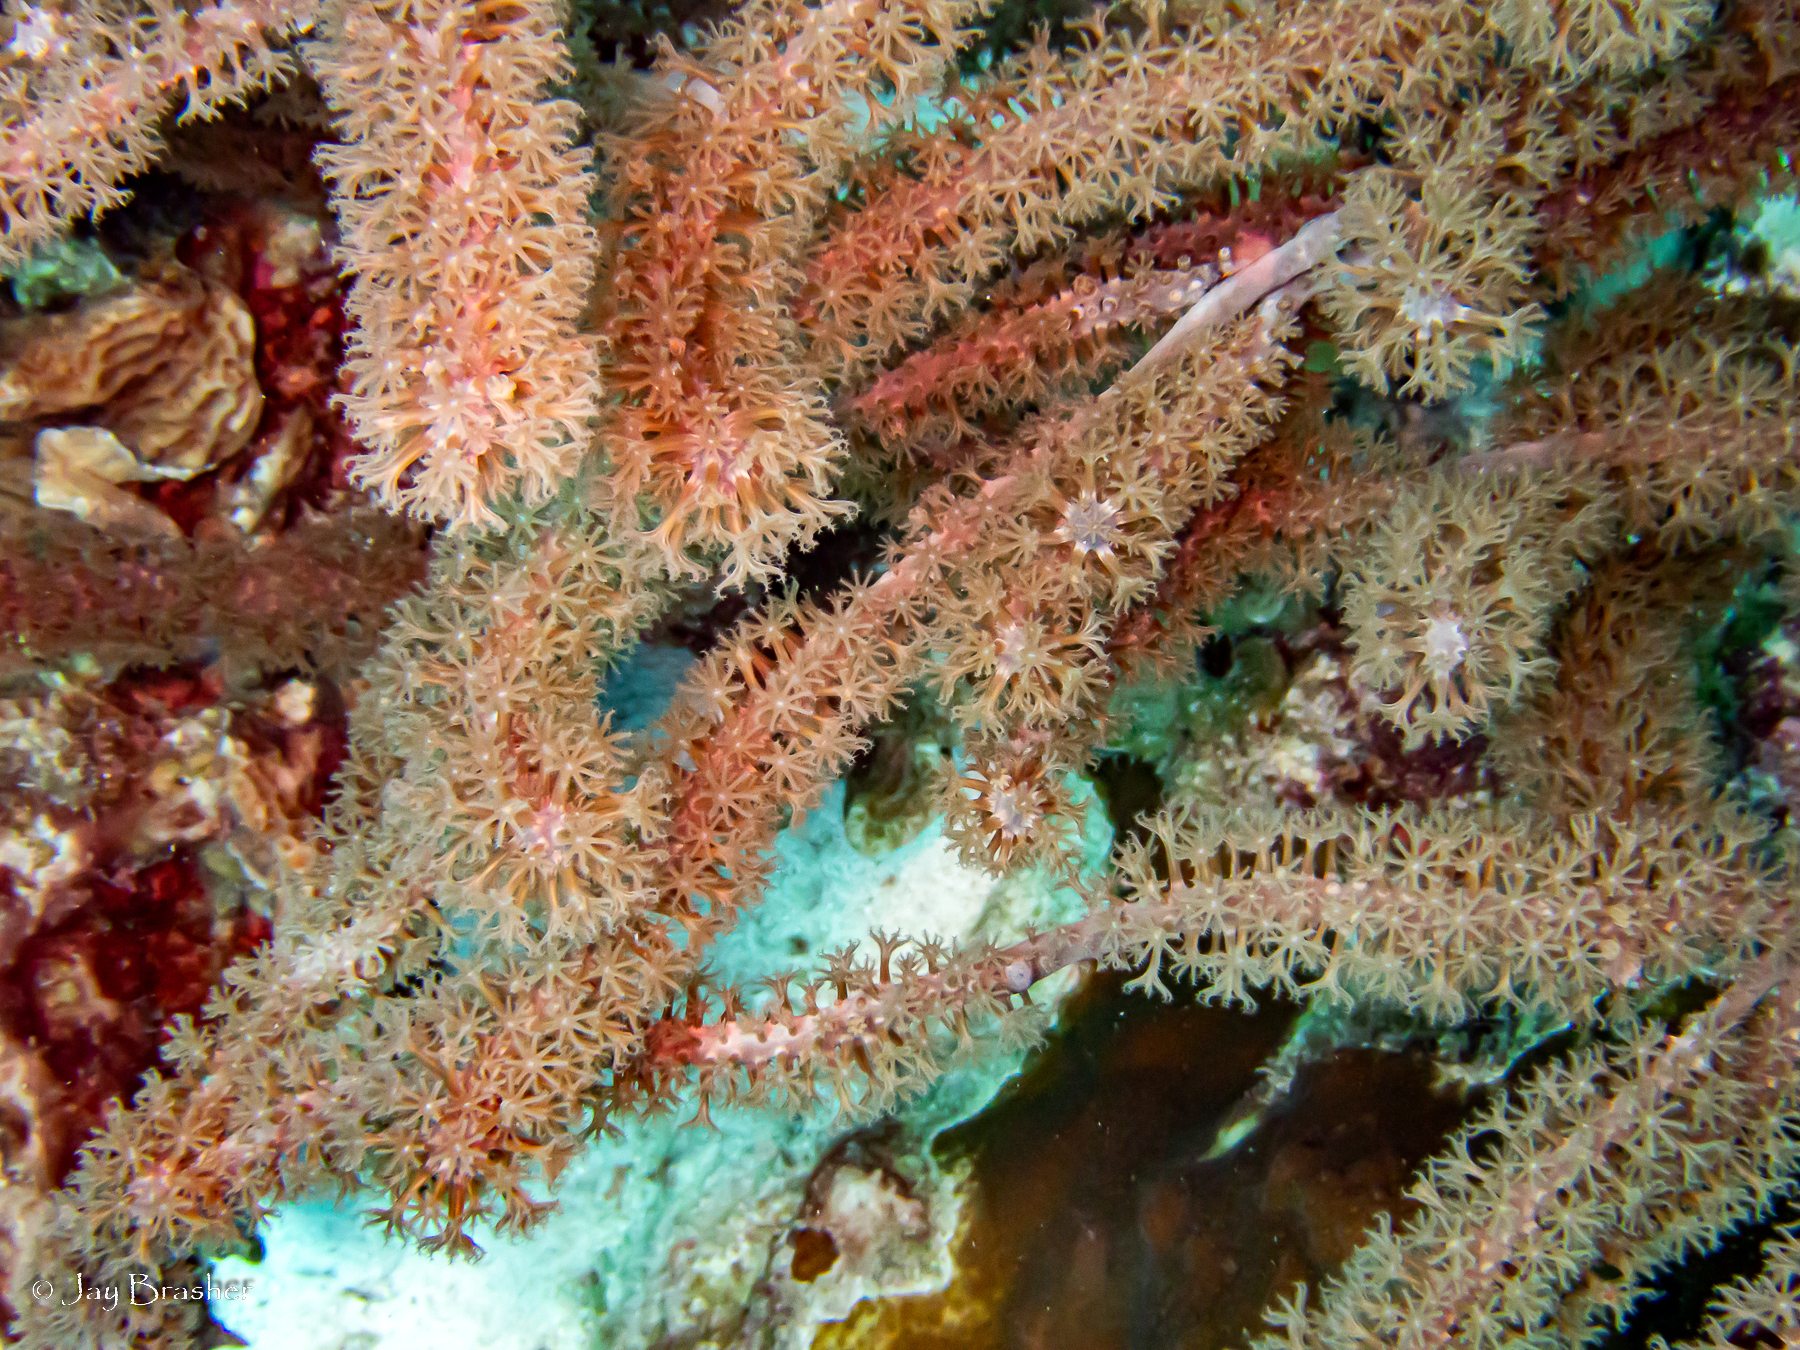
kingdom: Animalia
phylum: Cnidaria
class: Anthozoa
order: Malacalcyonacea
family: Pterogorgiidae
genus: Muriceopsis
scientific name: Muriceopsis flavida
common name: Rough sea plume
